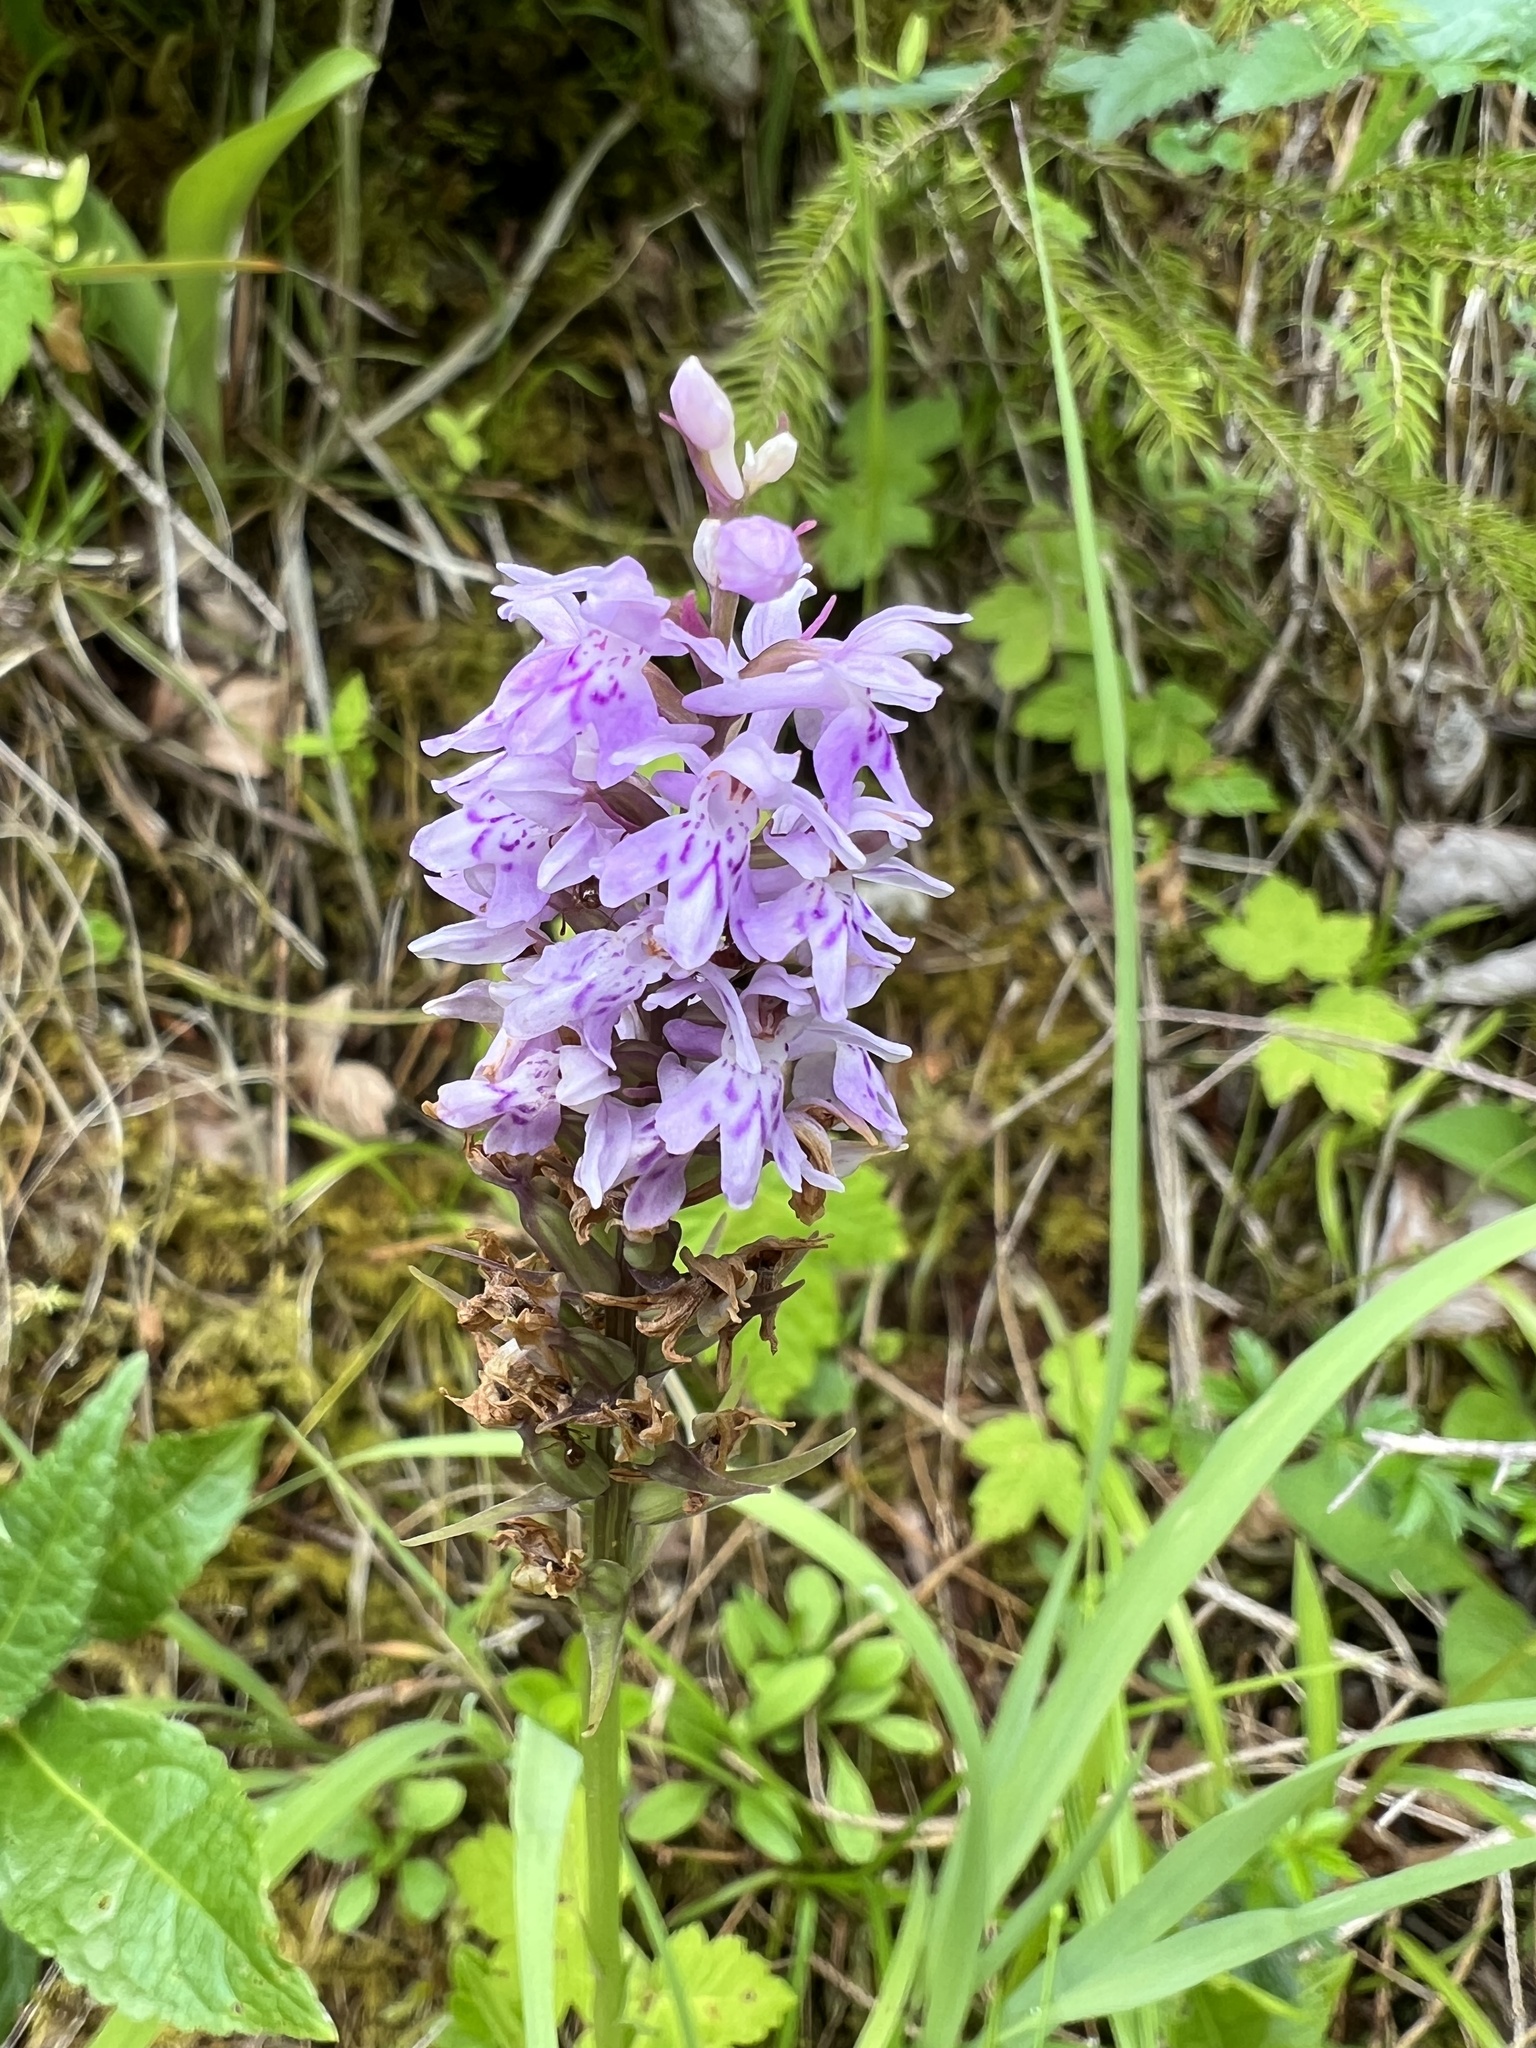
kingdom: Plantae
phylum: Tracheophyta
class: Liliopsida
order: Asparagales
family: Orchidaceae
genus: Dactylorhiza
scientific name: Dactylorhiza maculata
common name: Heath spotted-orchid
